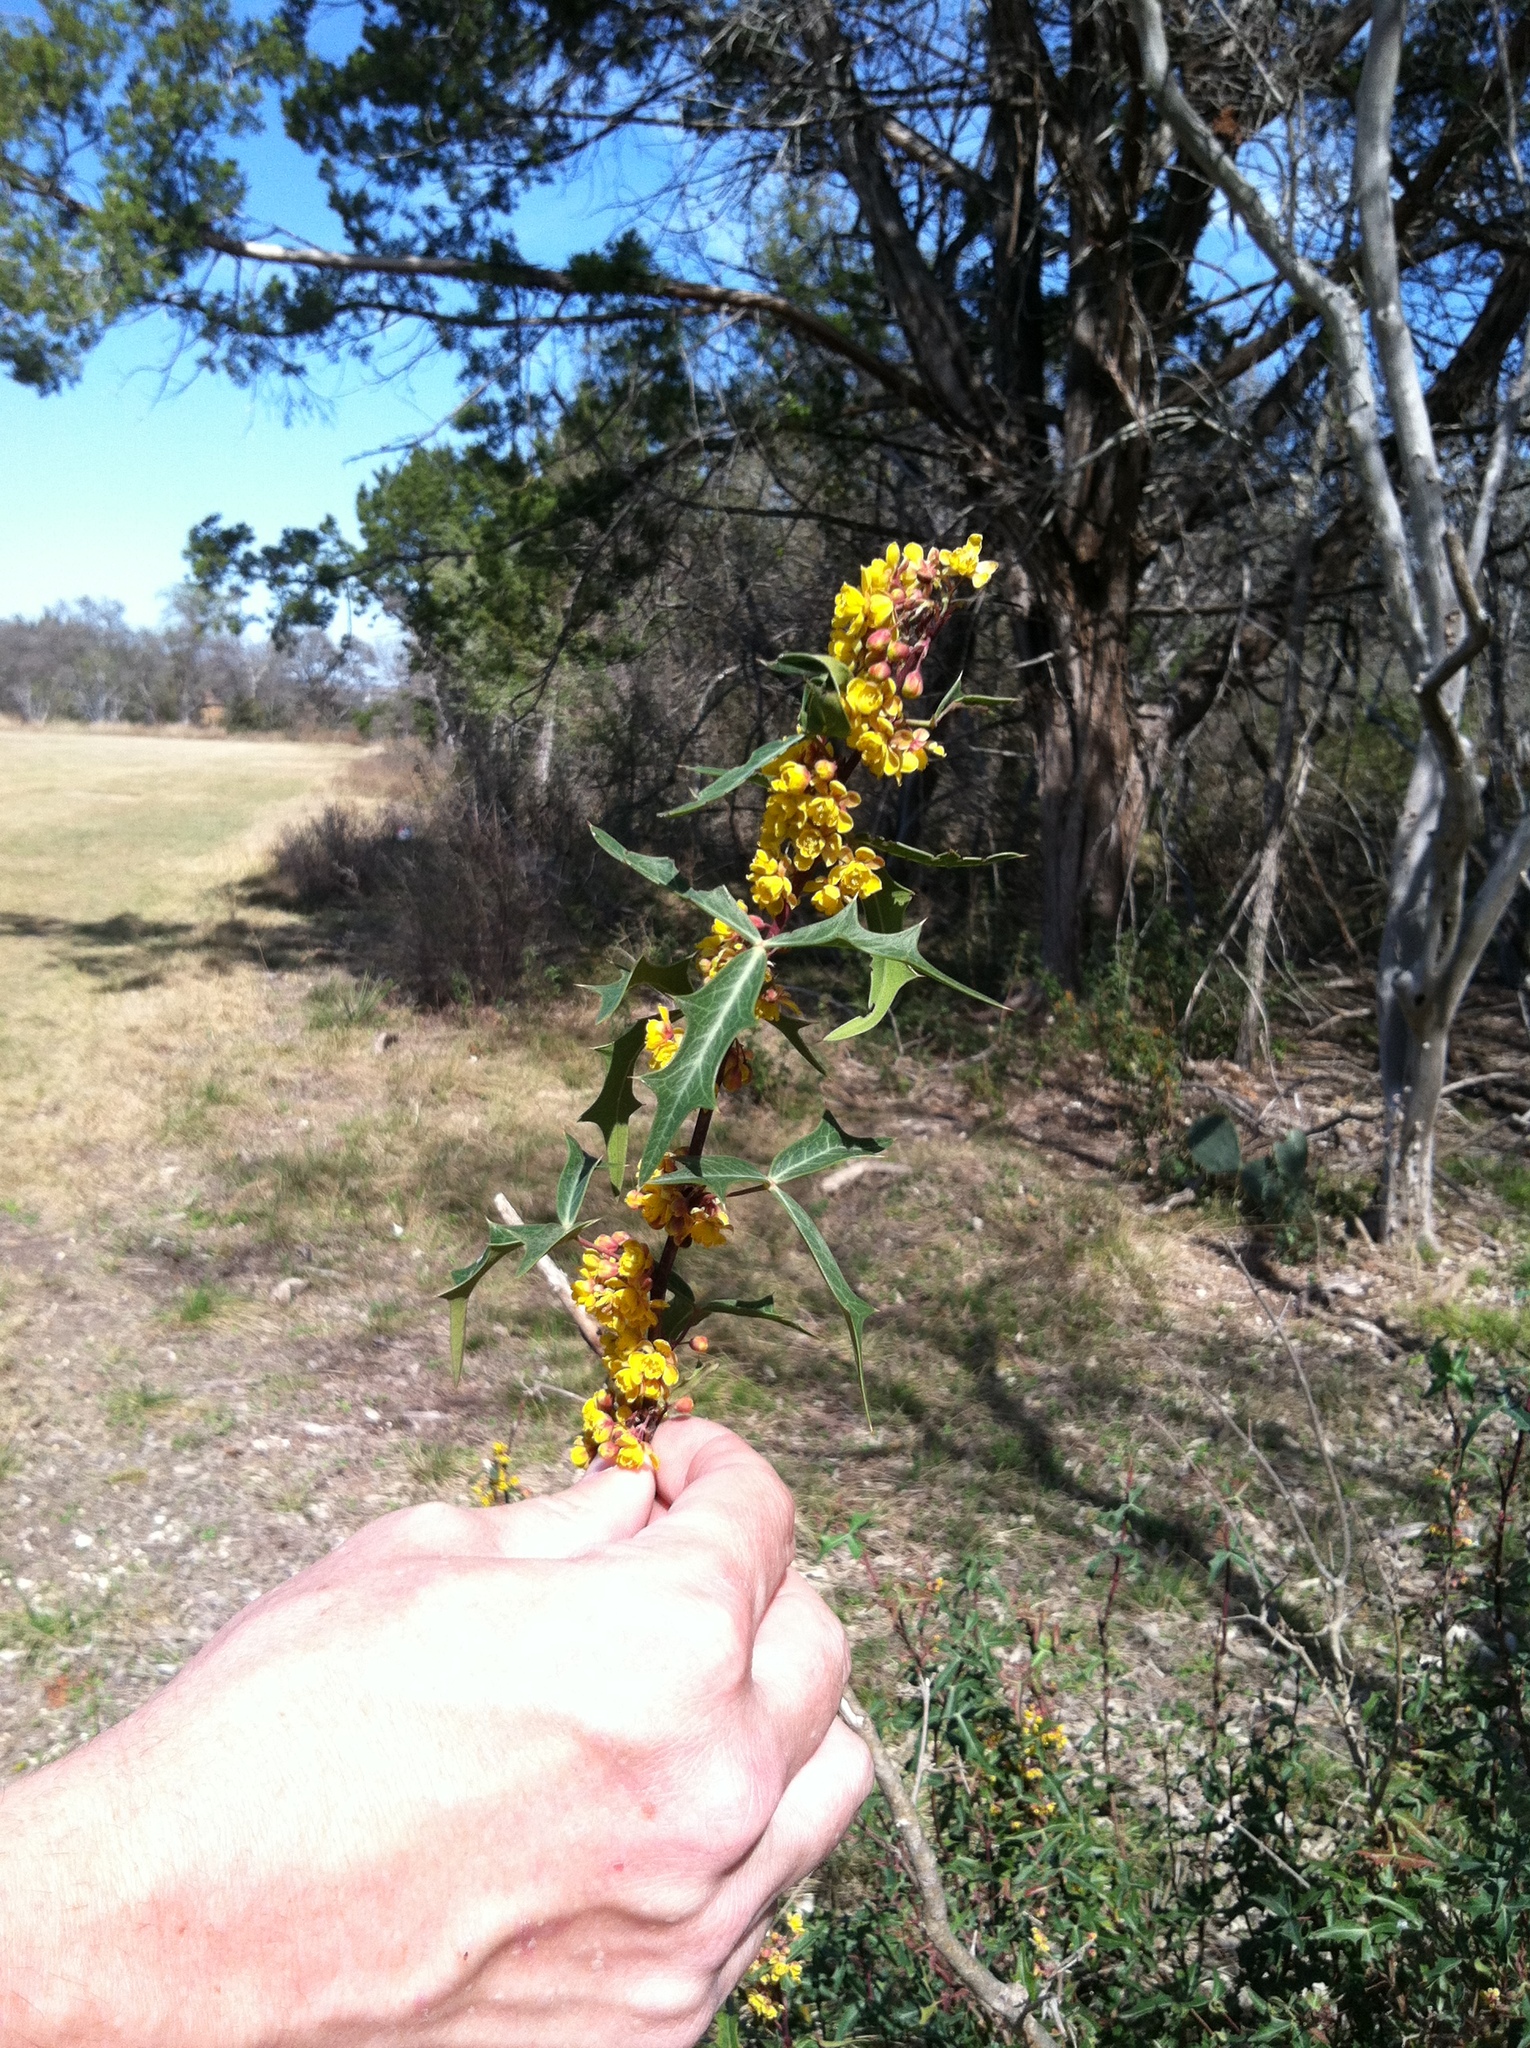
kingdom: Plantae
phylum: Tracheophyta
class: Magnoliopsida
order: Ranunculales
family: Berberidaceae
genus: Alloberberis
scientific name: Alloberberis trifoliolata
